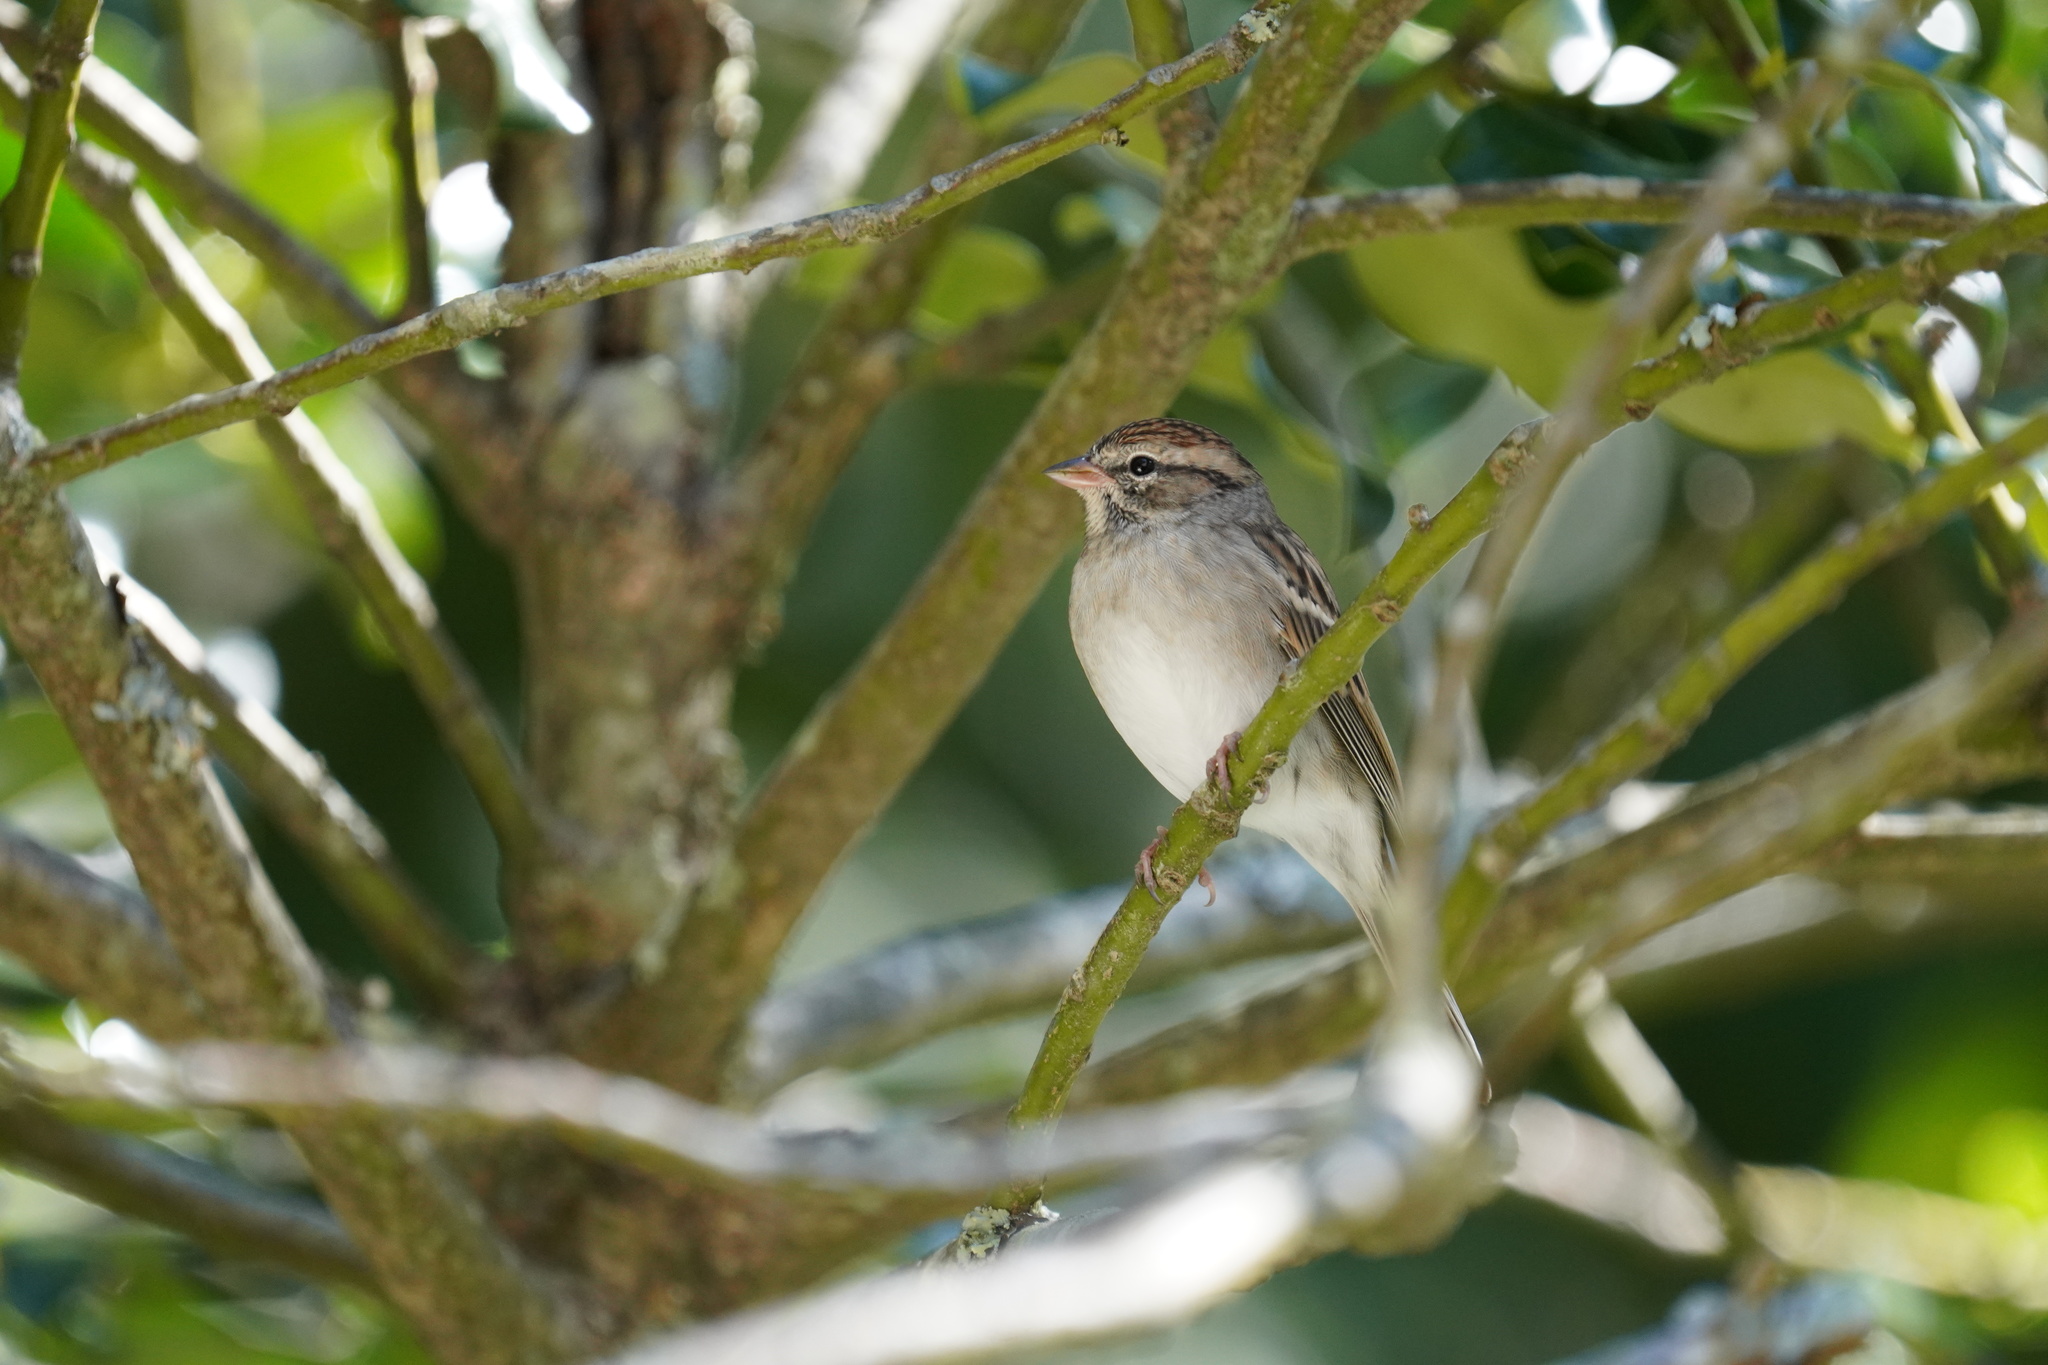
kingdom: Animalia
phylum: Chordata
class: Aves
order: Passeriformes
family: Passerellidae
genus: Spizella
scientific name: Spizella passerina
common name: Chipping sparrow
